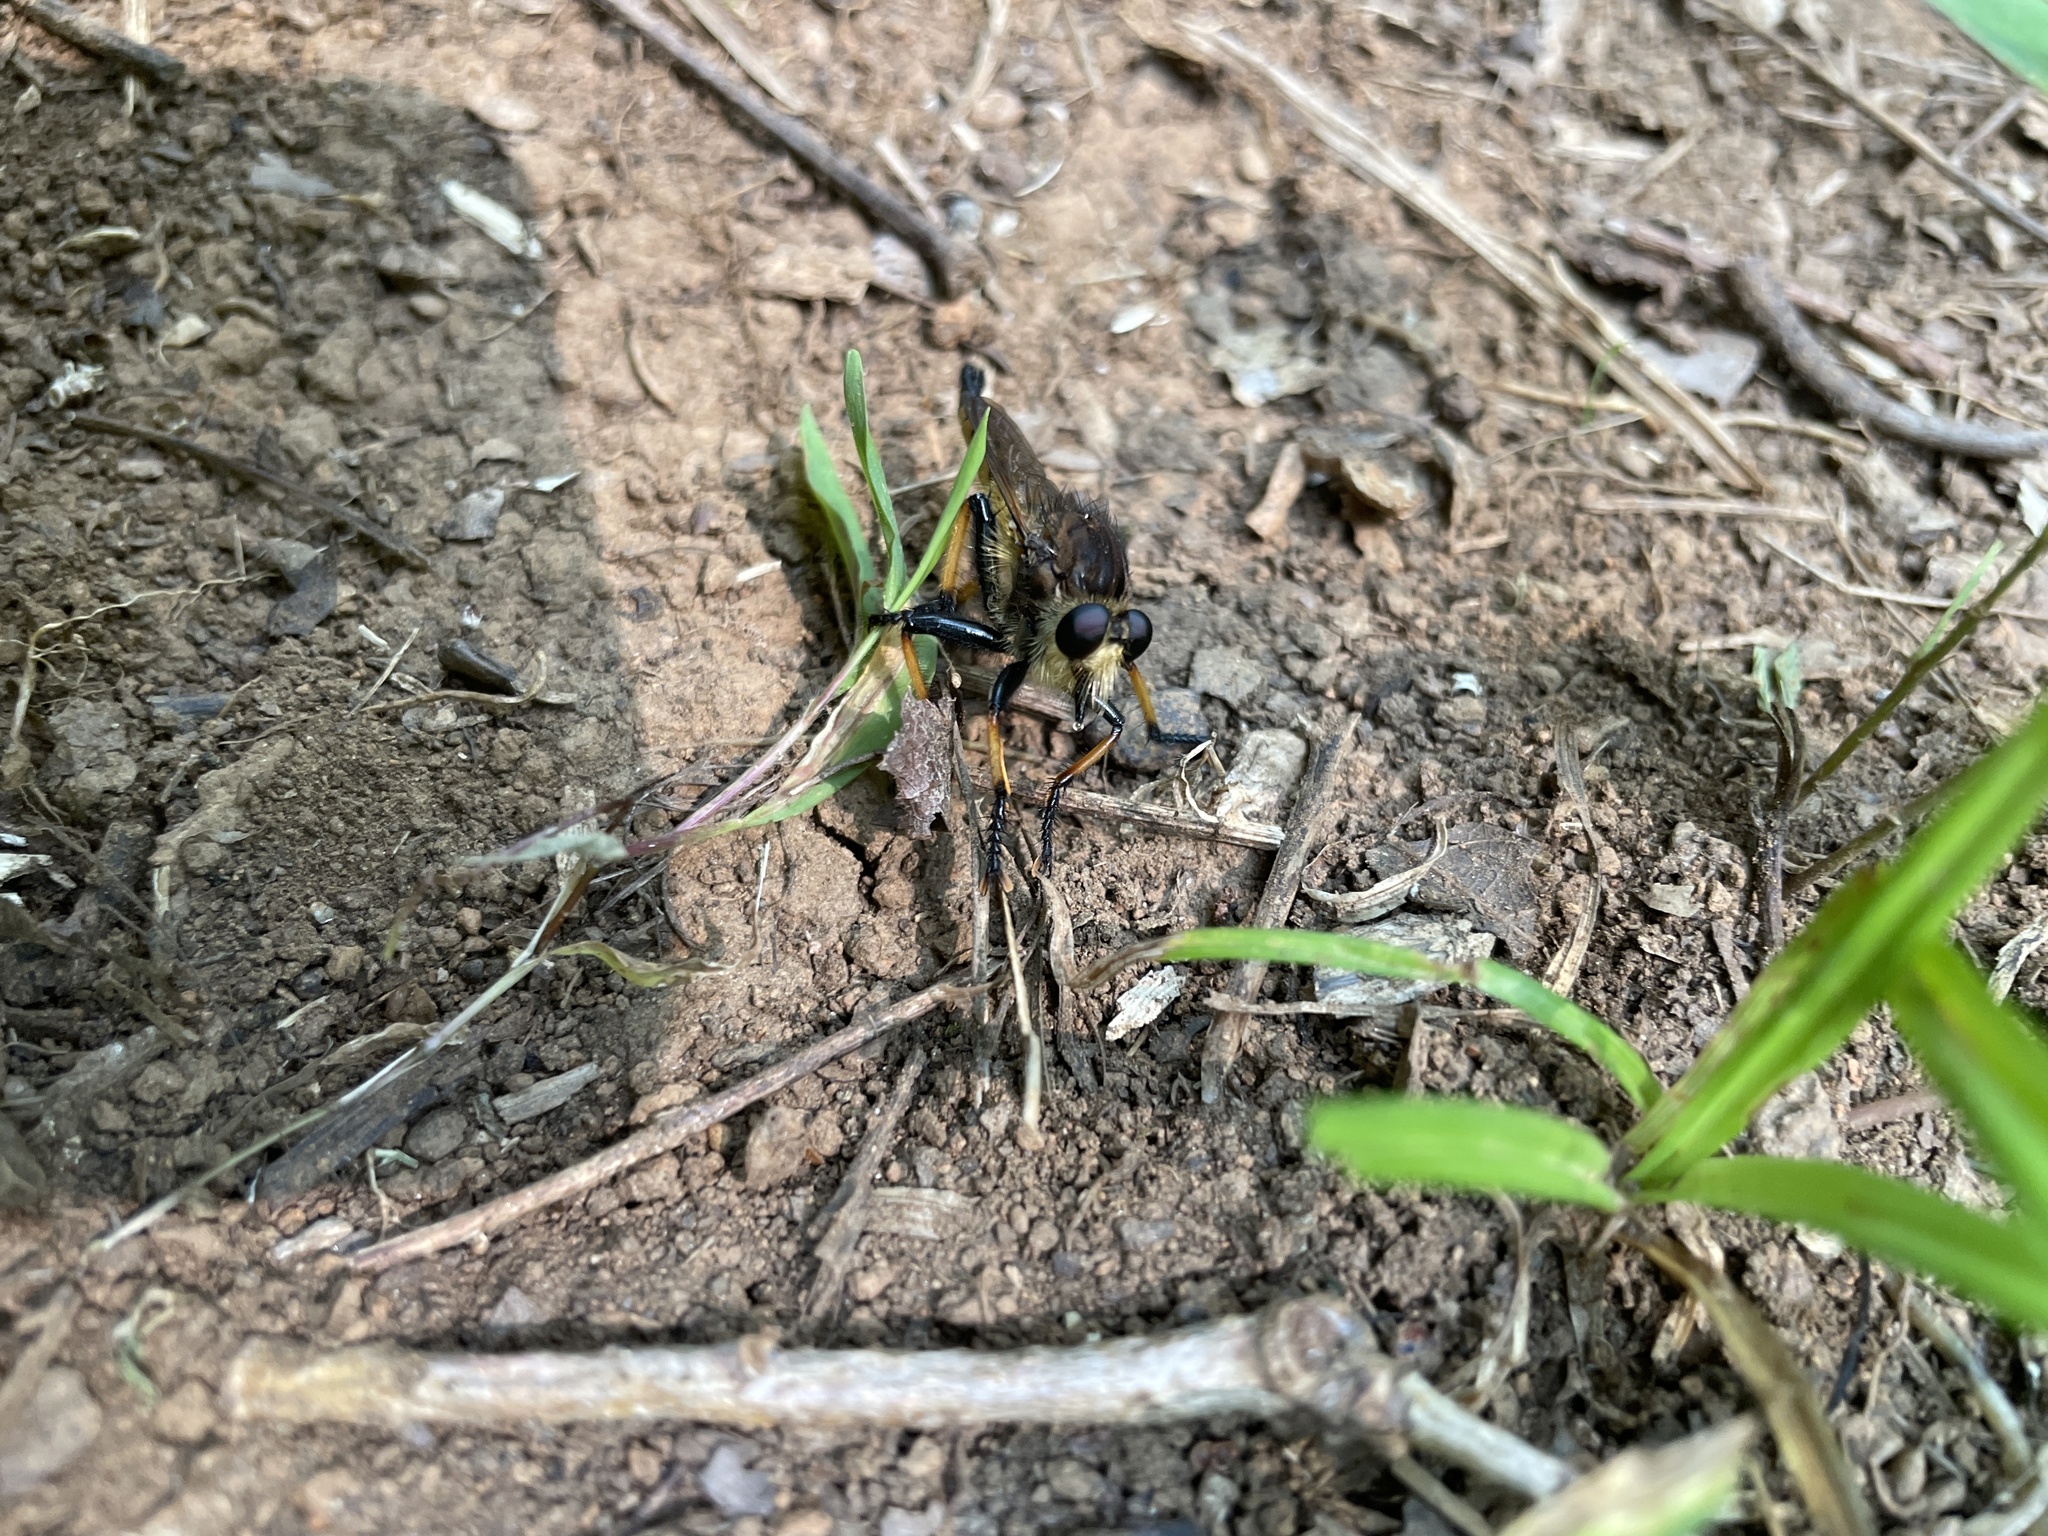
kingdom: Animalia
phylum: Arthropoda
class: Insecta
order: Diptera
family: Asilidae
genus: Promachus
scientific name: Promachus rufipes
